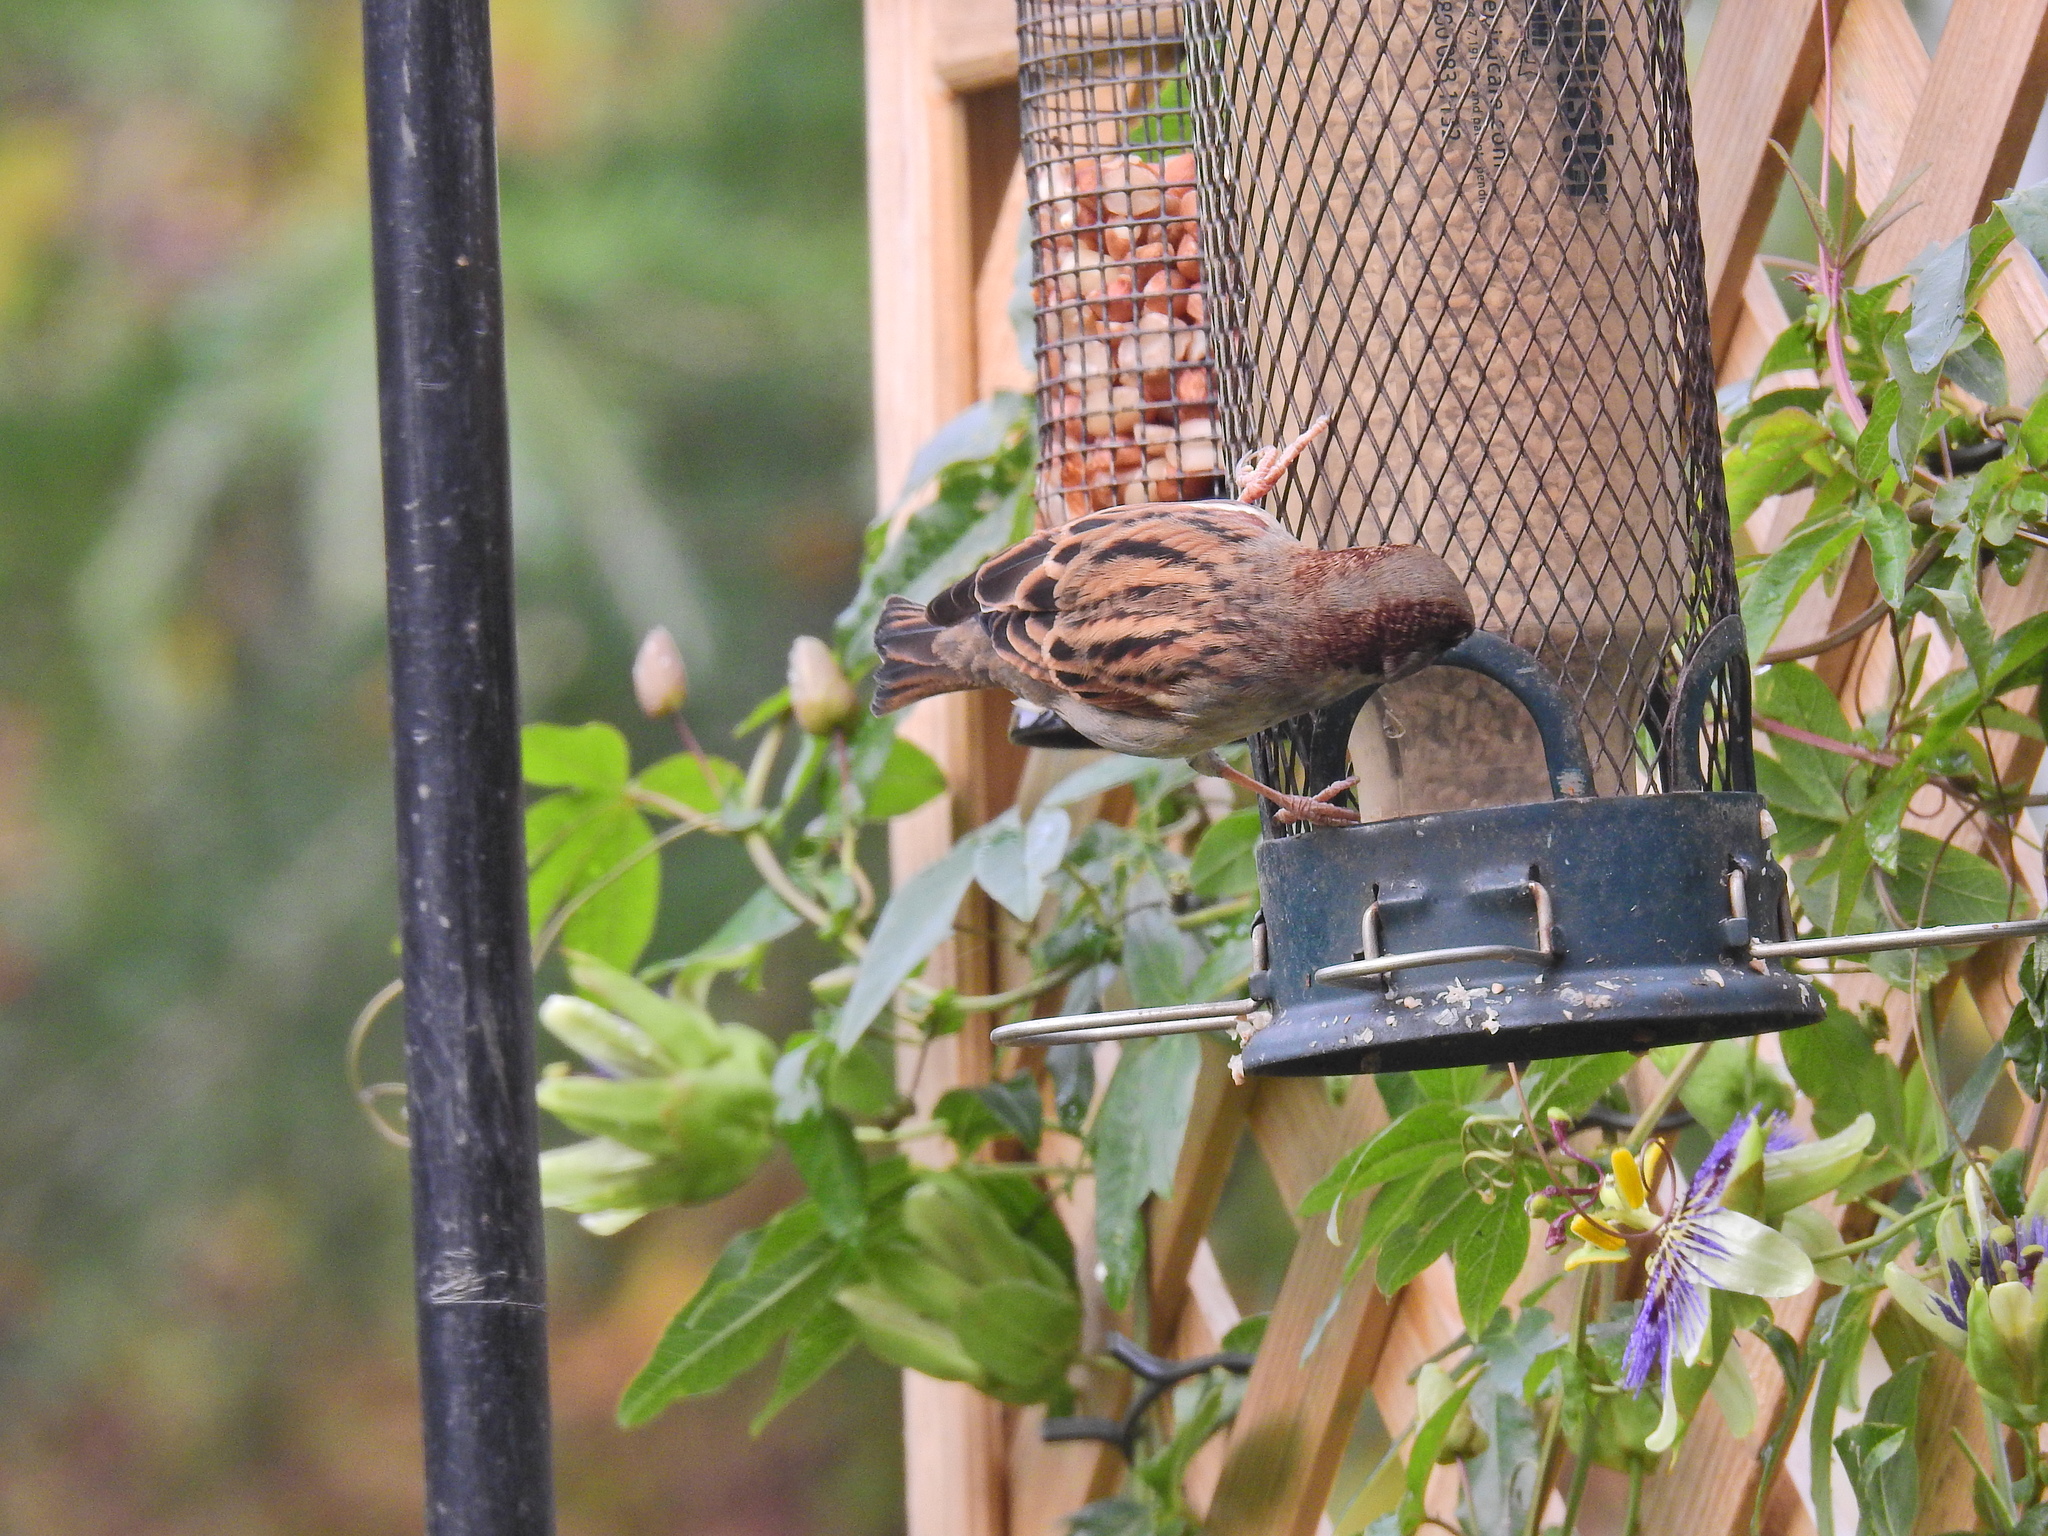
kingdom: Animalia
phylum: Chordata
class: Aves
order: Passeriformes
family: Passeridae
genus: Passer
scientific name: Passer domesticus
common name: House sparrow
